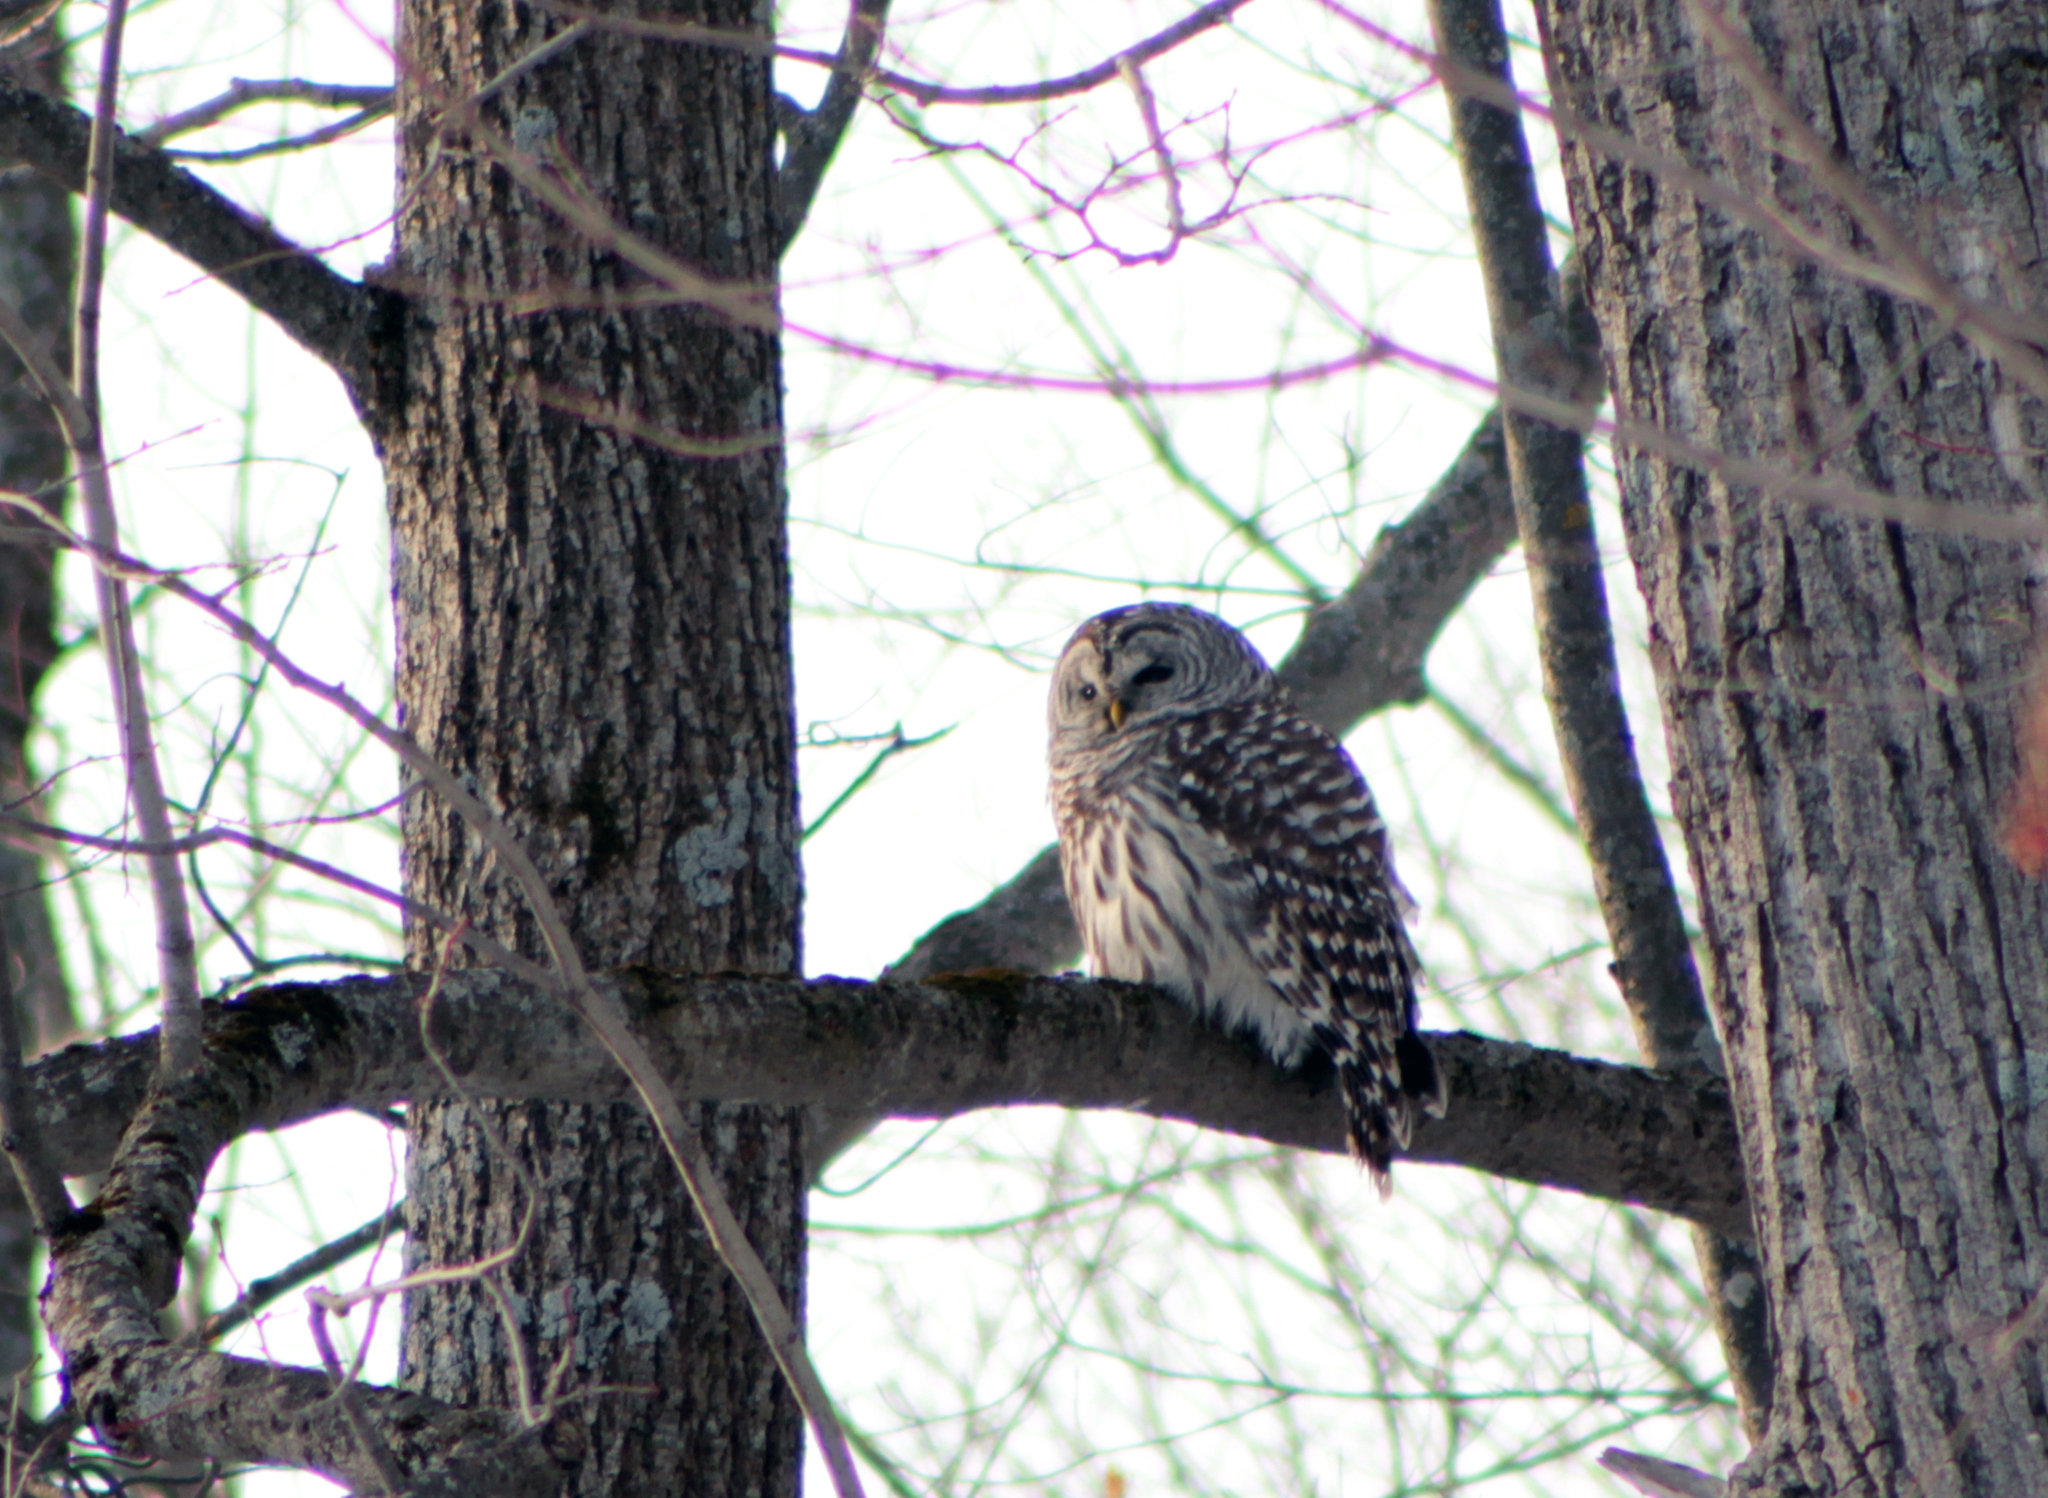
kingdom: Animalia
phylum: Chordata
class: Aves
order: Strigiformes
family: Strigidae
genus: Strix
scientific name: Strix varia
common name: Barred owl
